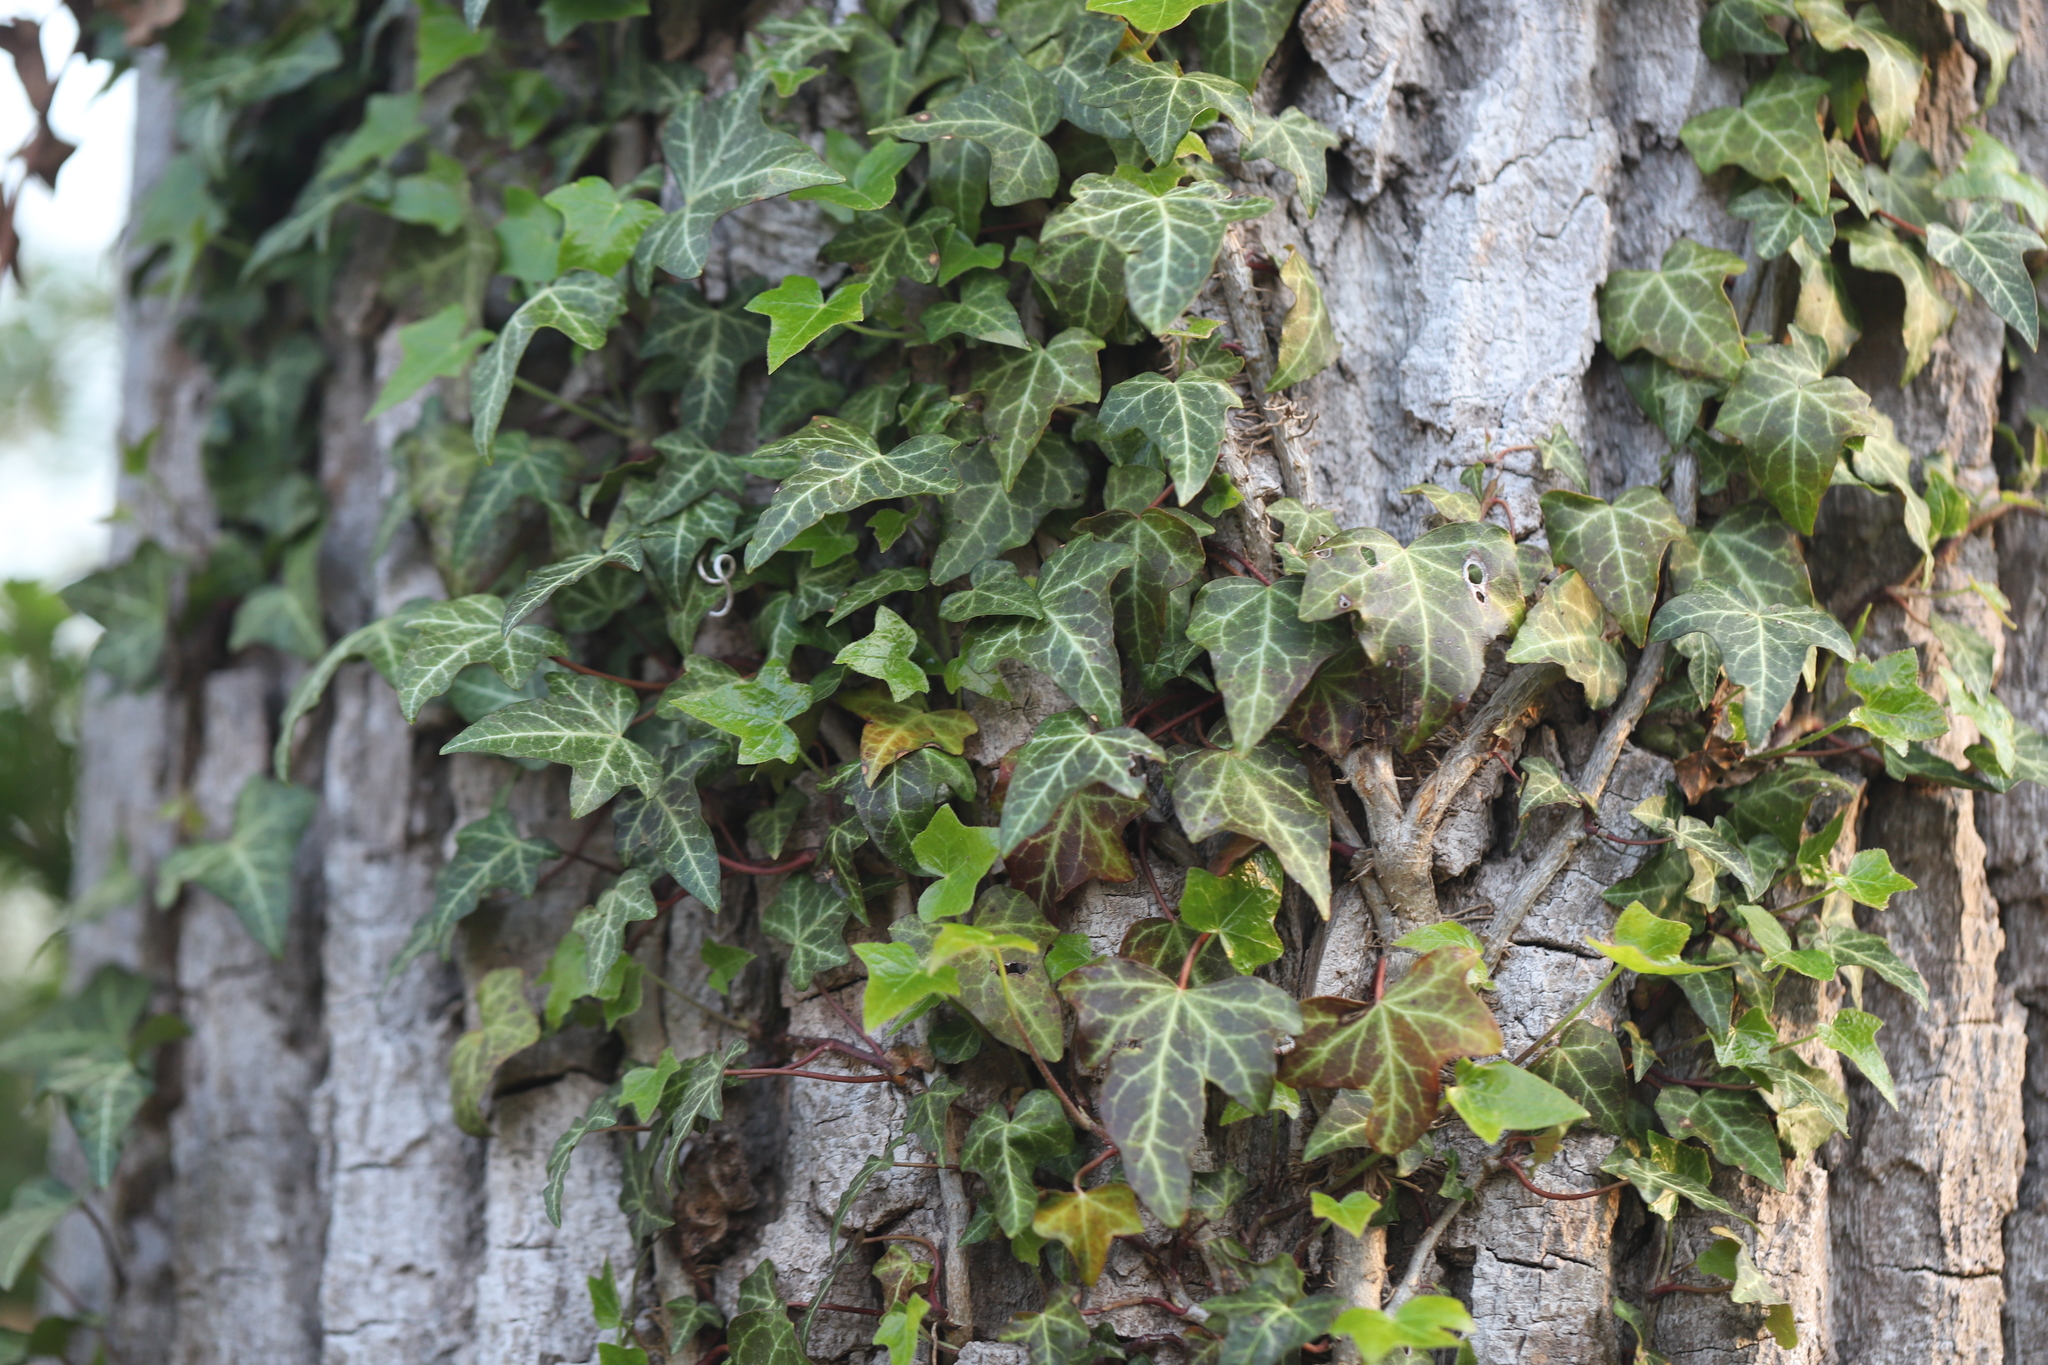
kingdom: Plantae
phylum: Tracheophyta
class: Magnoliopsida
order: Apiales
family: Araliaceae
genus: Hedera
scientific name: Hedera helix
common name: Ivy
